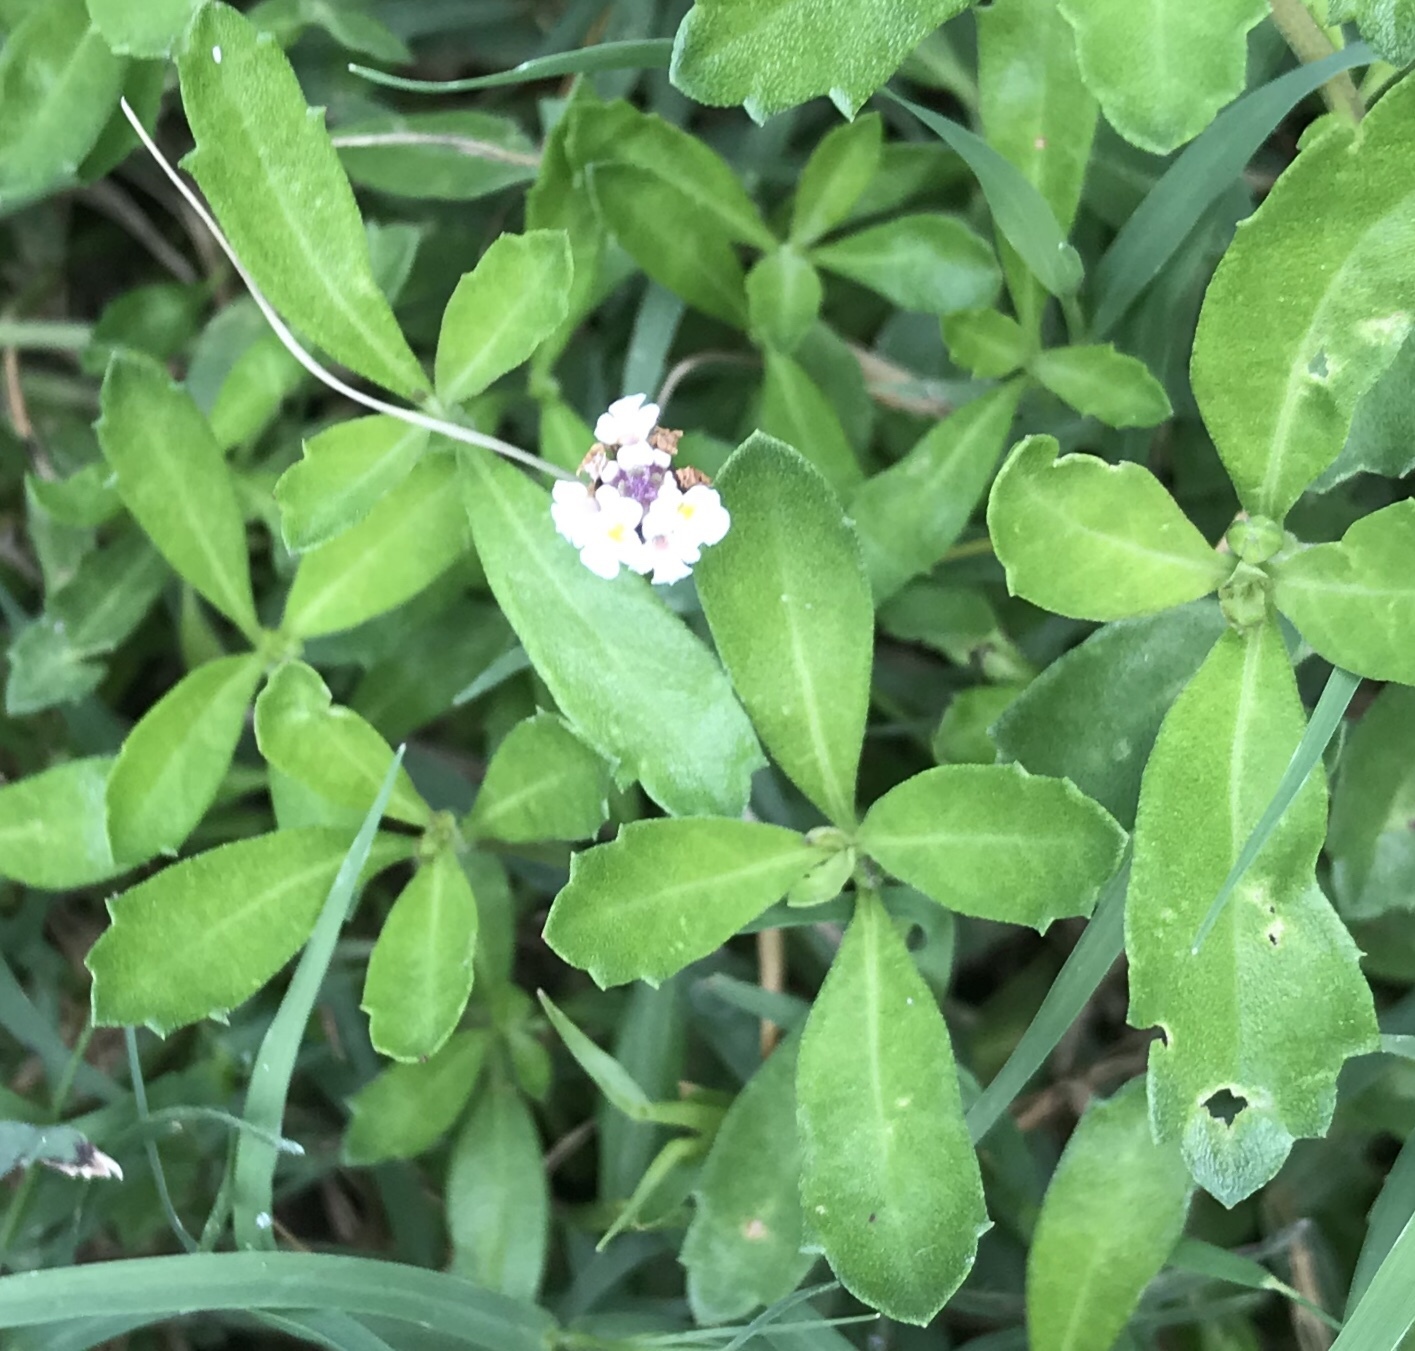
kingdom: Plantae
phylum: Tracheophyta
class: Magnoliopsida
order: Lamiales
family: Verbenaceae
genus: Phyla
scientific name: Phyla nodiflora
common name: Frogfruit
